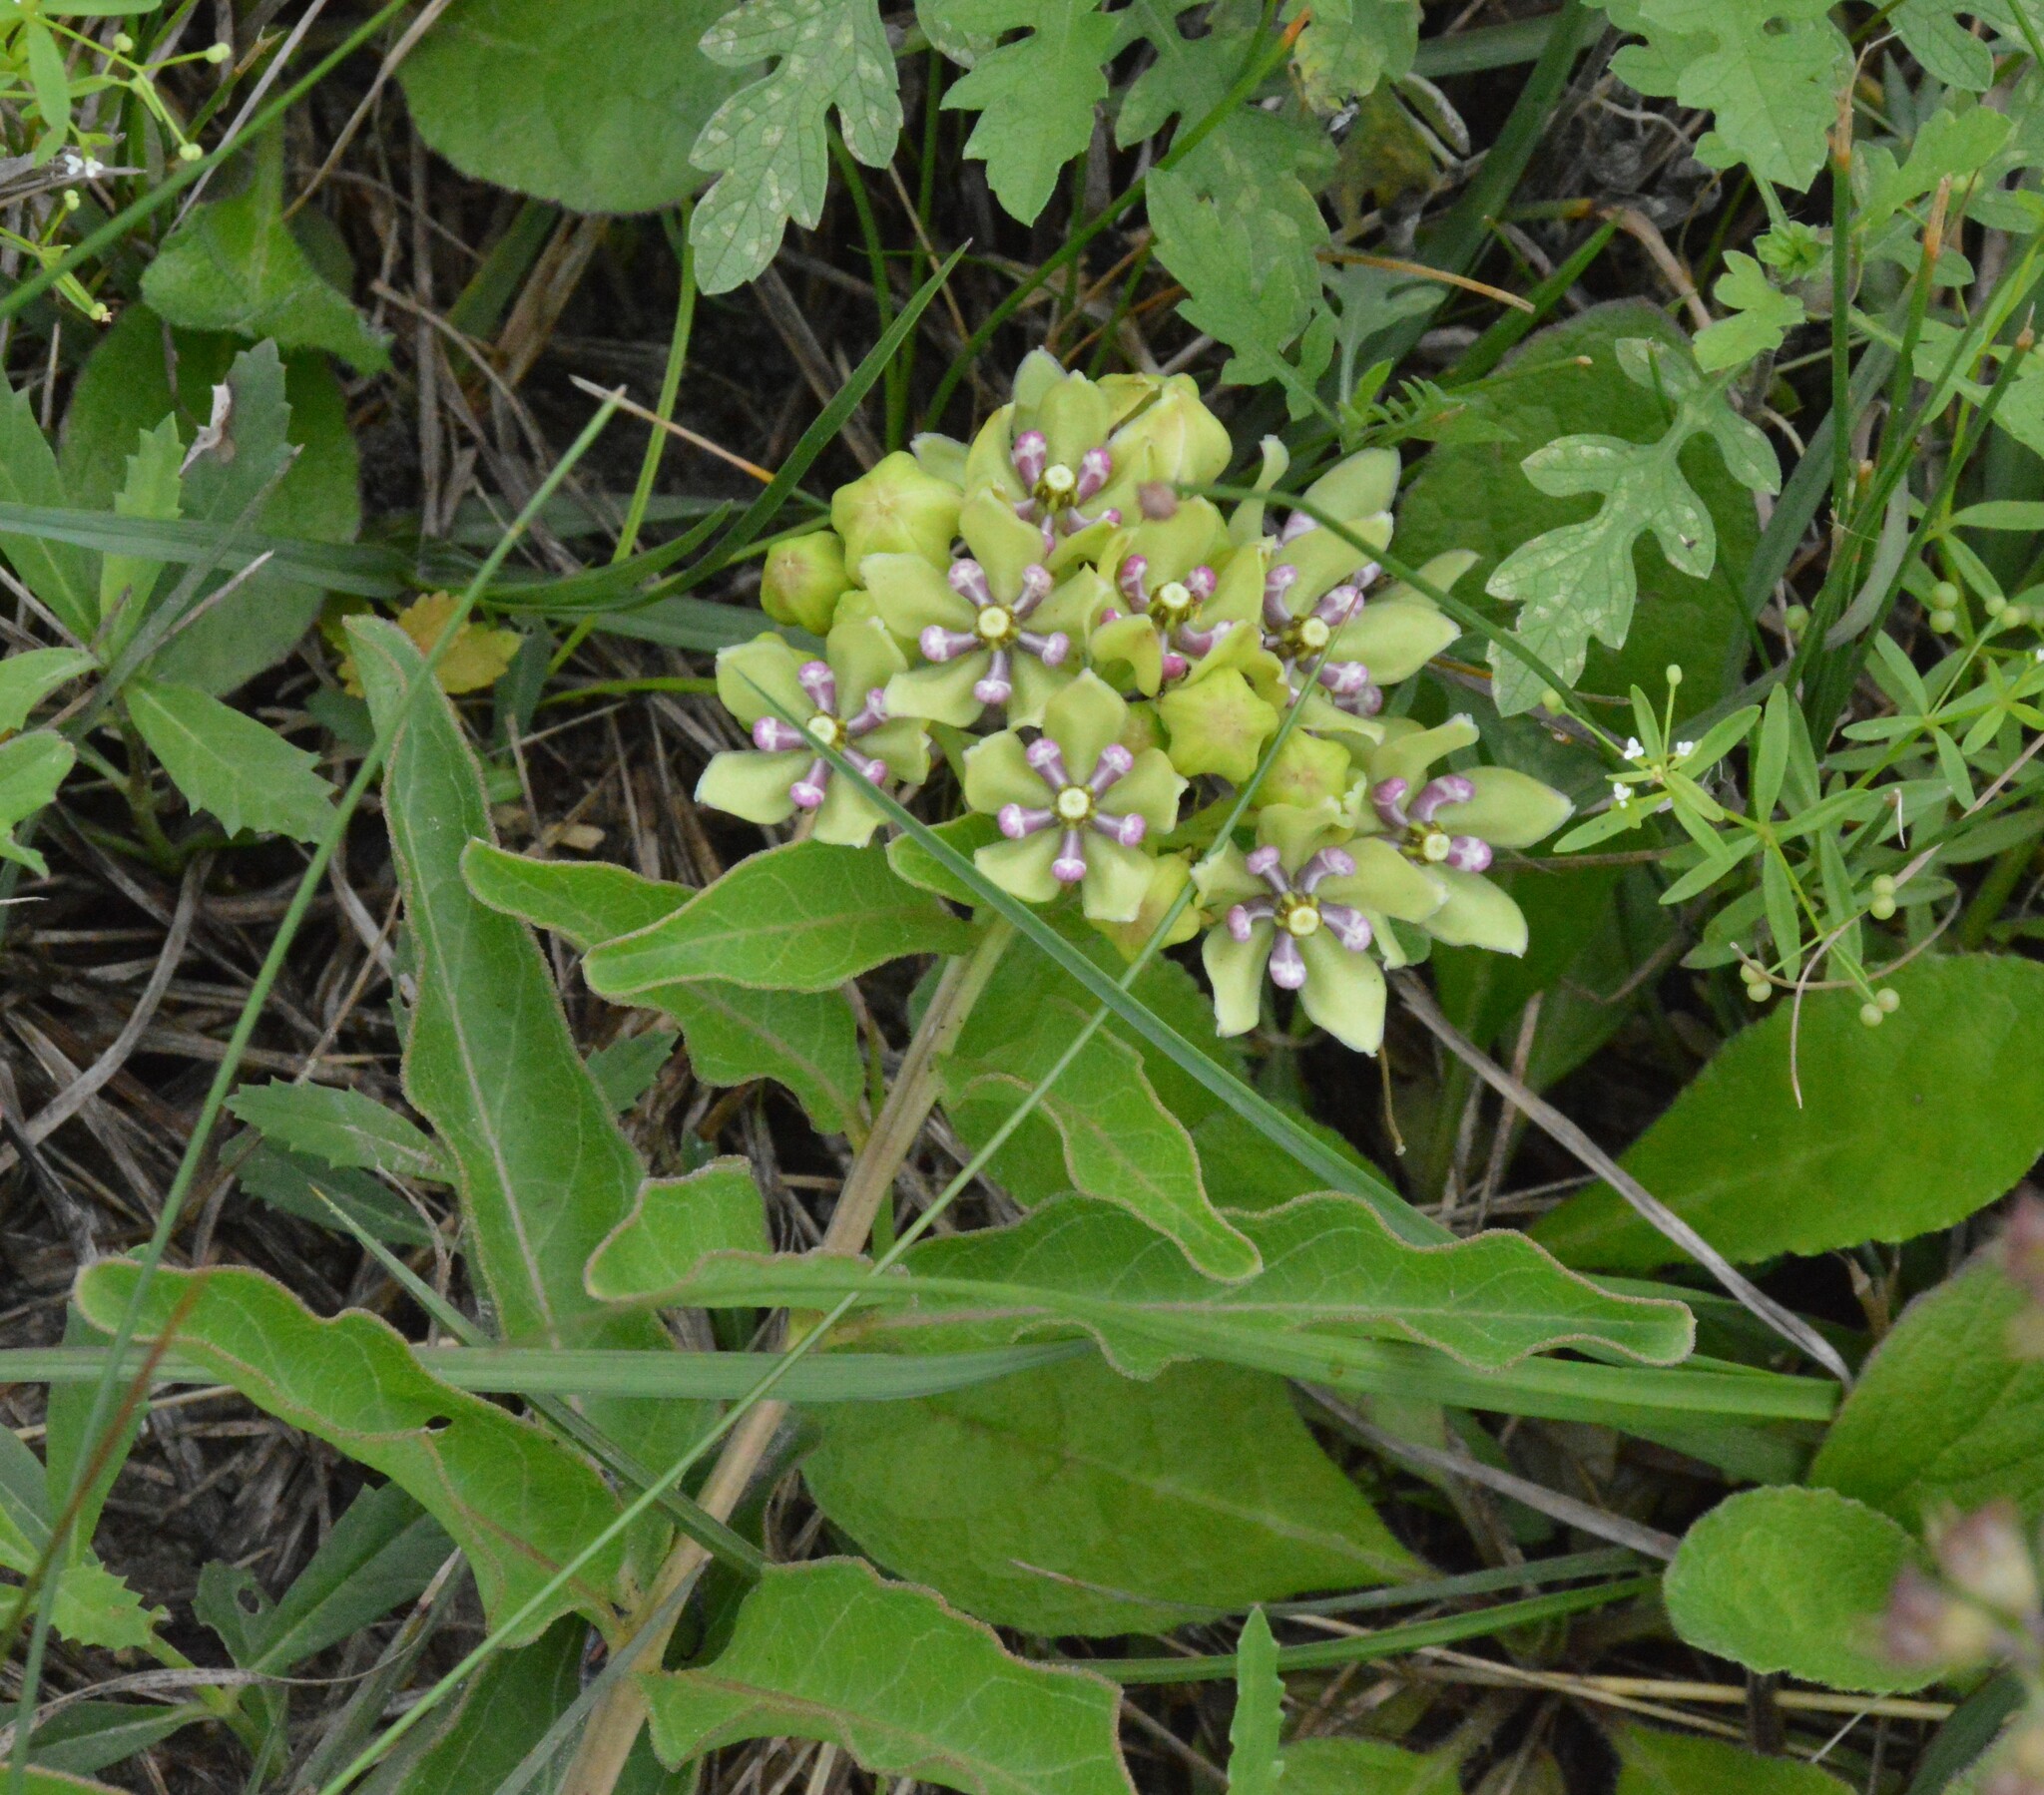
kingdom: Plantae
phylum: Tracheophyta
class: Magnoliopsida
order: Gentianales
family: Apocynaceae
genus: Asclepias
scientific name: Asclepias viridis
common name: Antelope-horns
